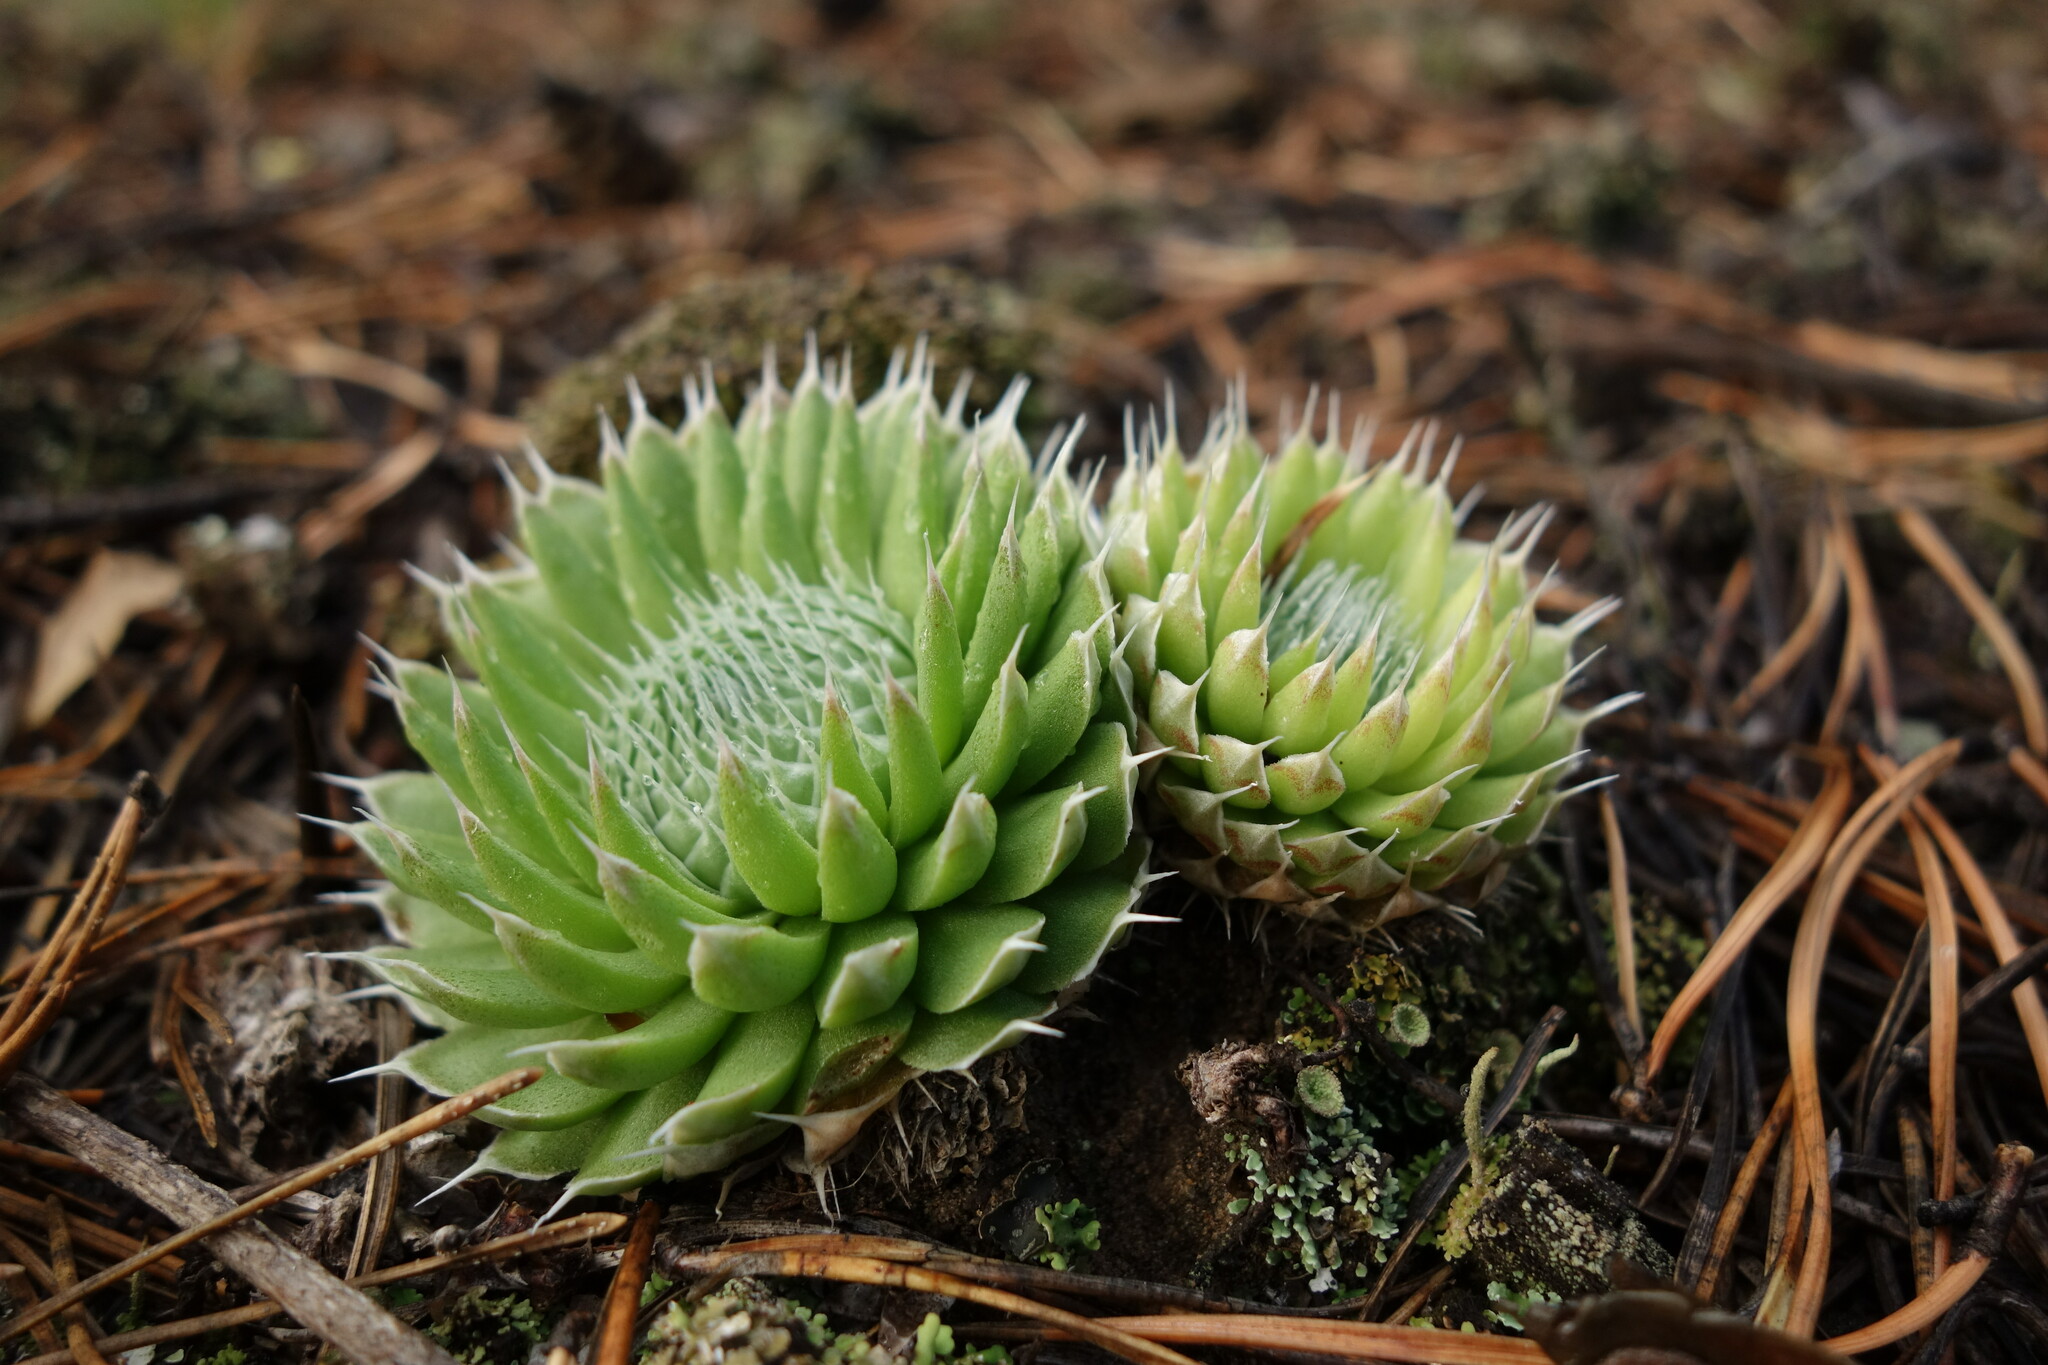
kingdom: Plantae
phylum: Tracheophyta
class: Magnoliopsida
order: Saxifragales
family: Crassulaceae
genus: Orostachys
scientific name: Orostachys spinosa
